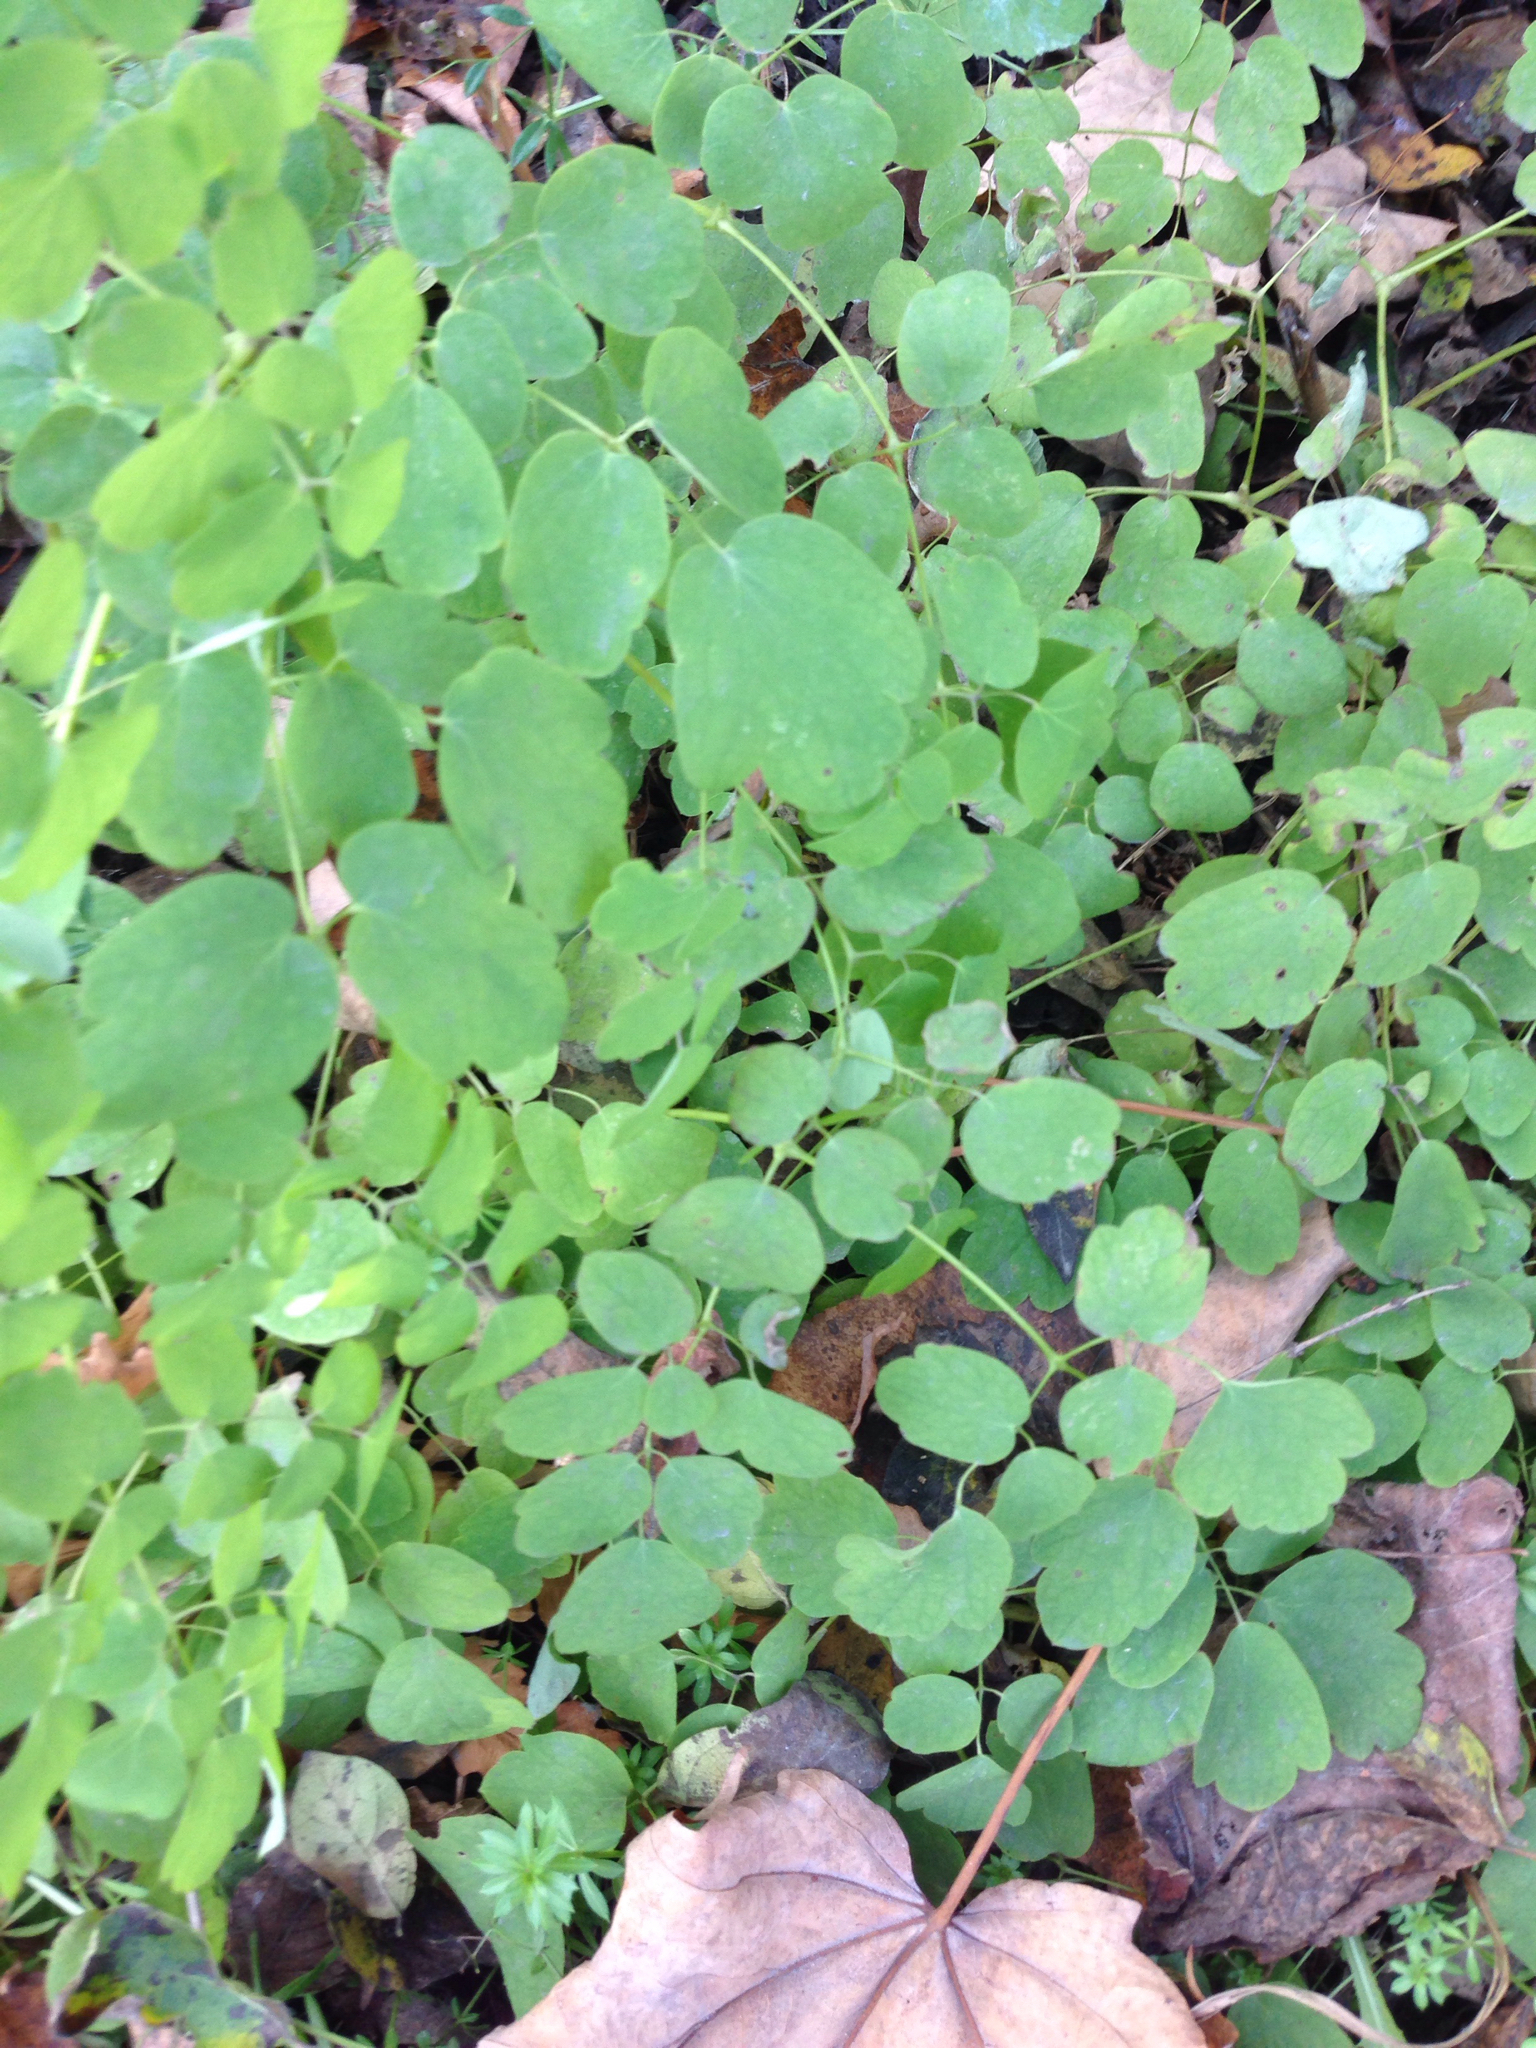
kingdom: Plantae
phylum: Tracheophyta
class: Magnoliopsida
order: Ranunculales
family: Ranunculaceae
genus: Thalictrum
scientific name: Thalictrum pubescens
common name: King-of-the-meadow
